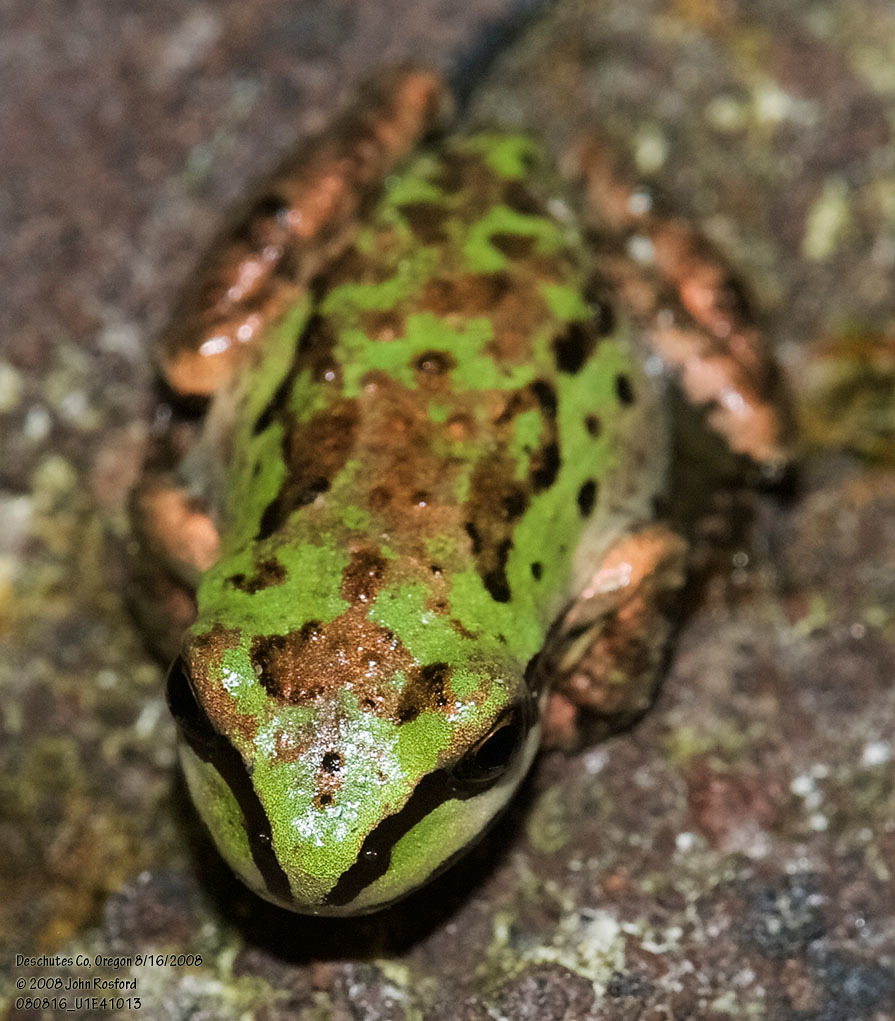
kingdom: Animalia
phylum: Chordata
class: Amphibia
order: Anura
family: Hylidae
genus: Pseudacris
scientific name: Pseudacris regilla
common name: Pacific chorus frog
